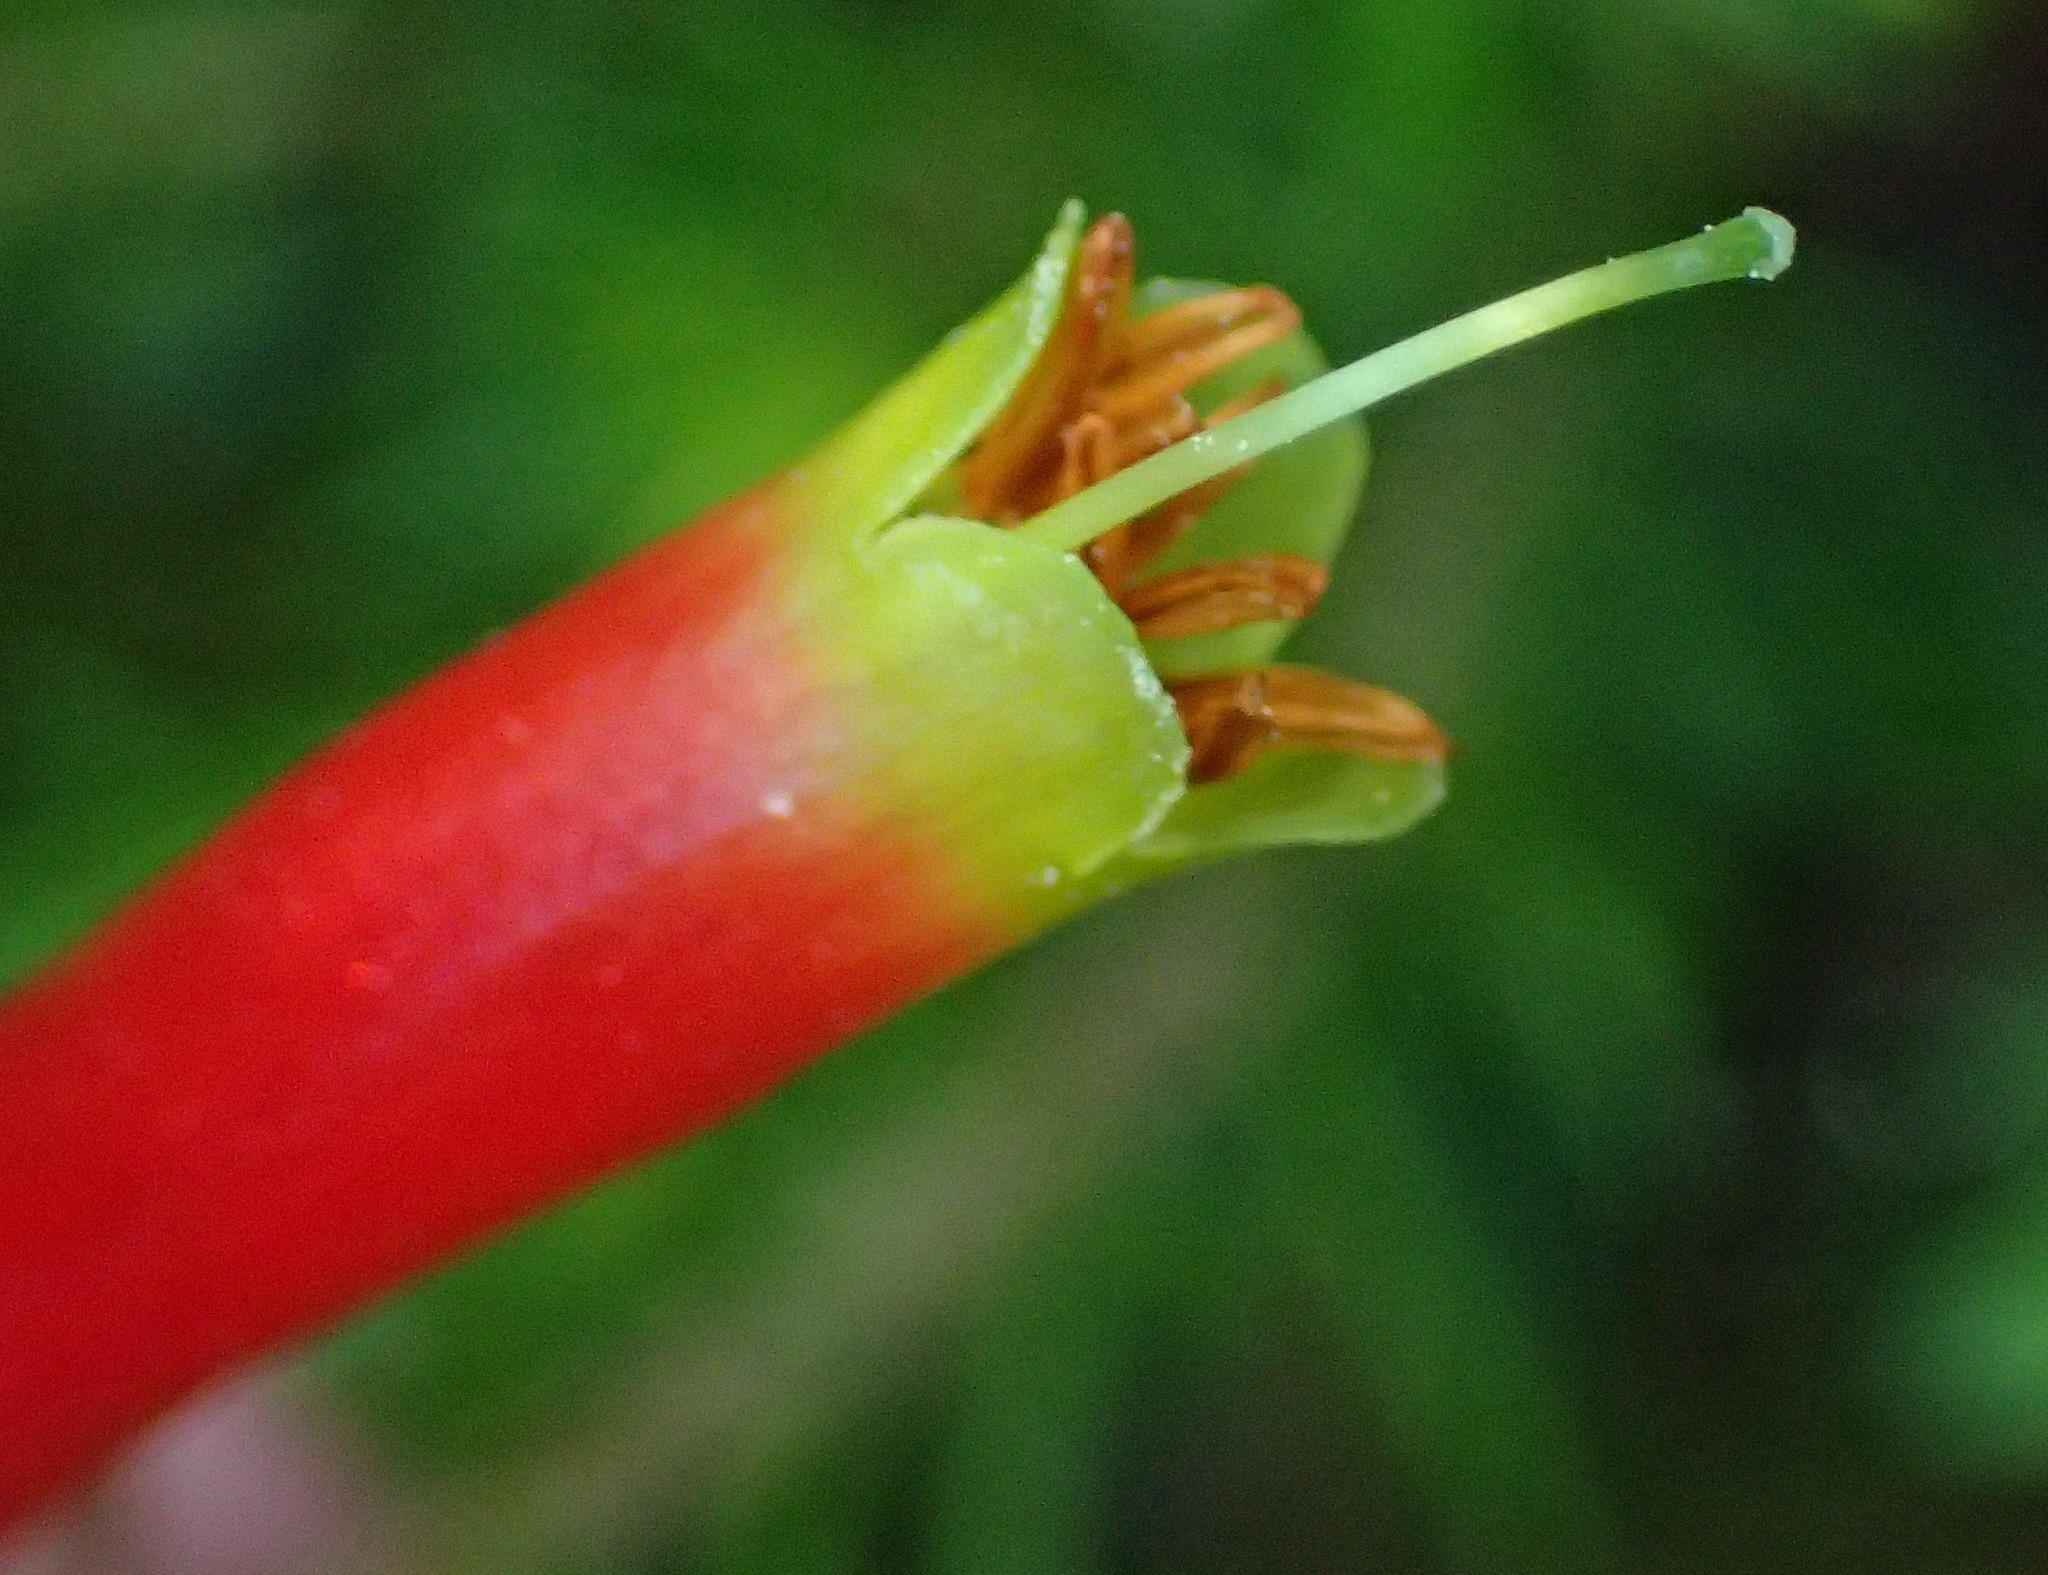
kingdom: Plantae
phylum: Tracheophyta
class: Magnoliopsida
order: Ericales
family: Ericaceae
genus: Erica
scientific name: Erica unicolor
